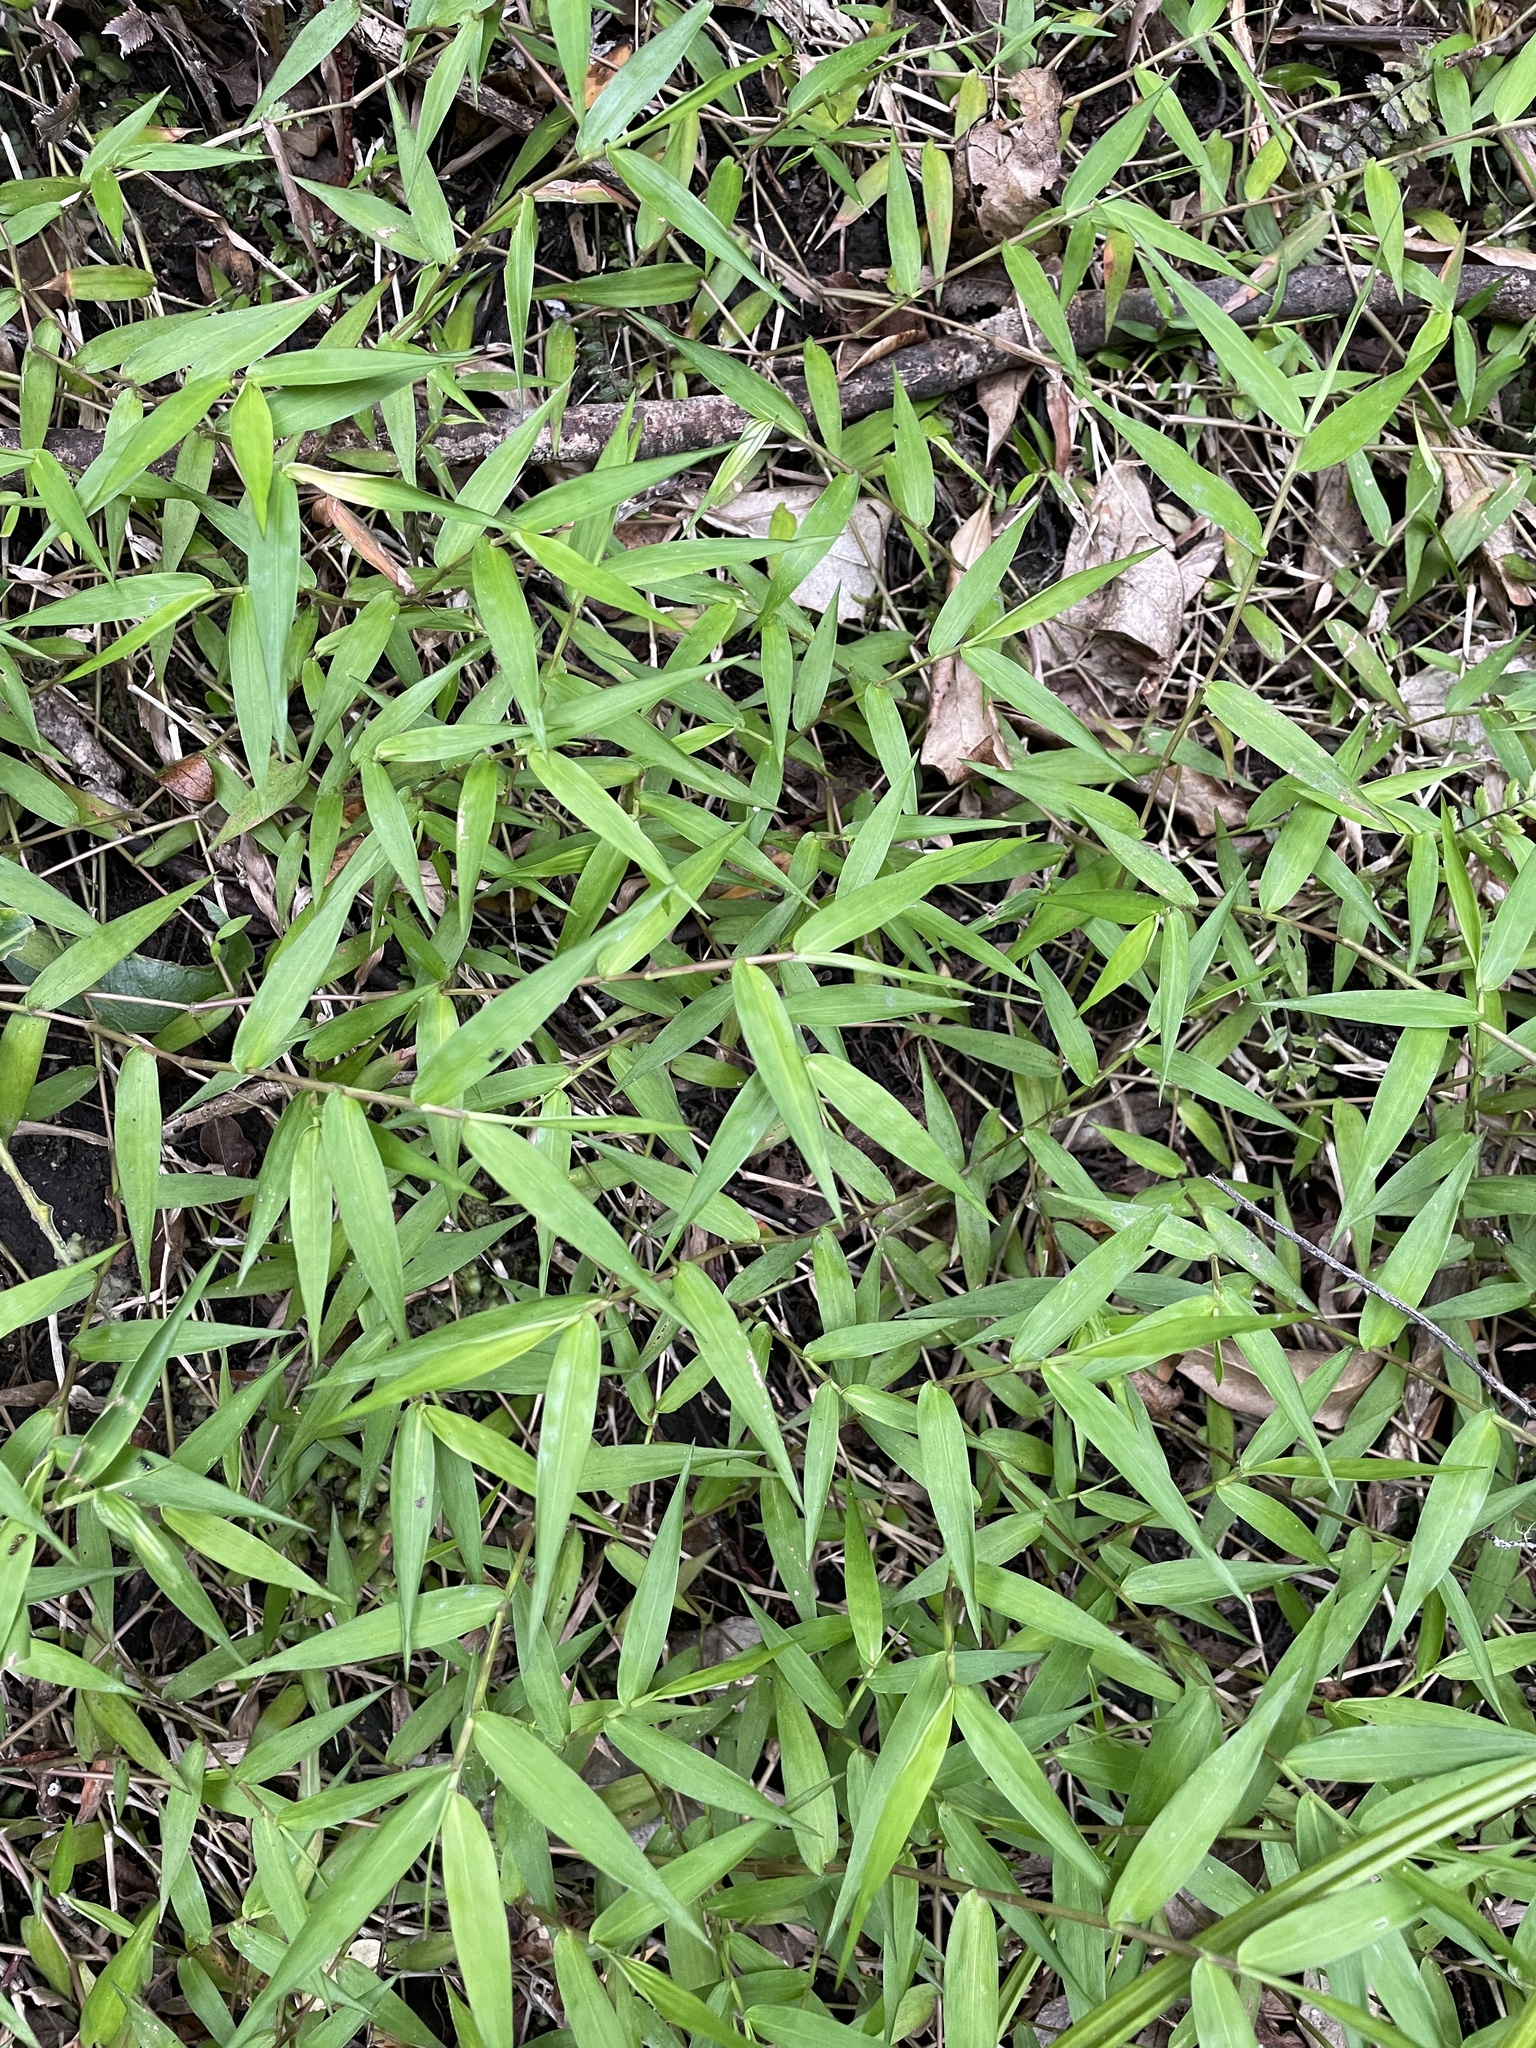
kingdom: Plantae
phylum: Tracheophyta
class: Liliopsida
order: Poales
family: Poaceae
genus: Oplismenus
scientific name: Oplismenus hirtellus
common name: Basketgrass
